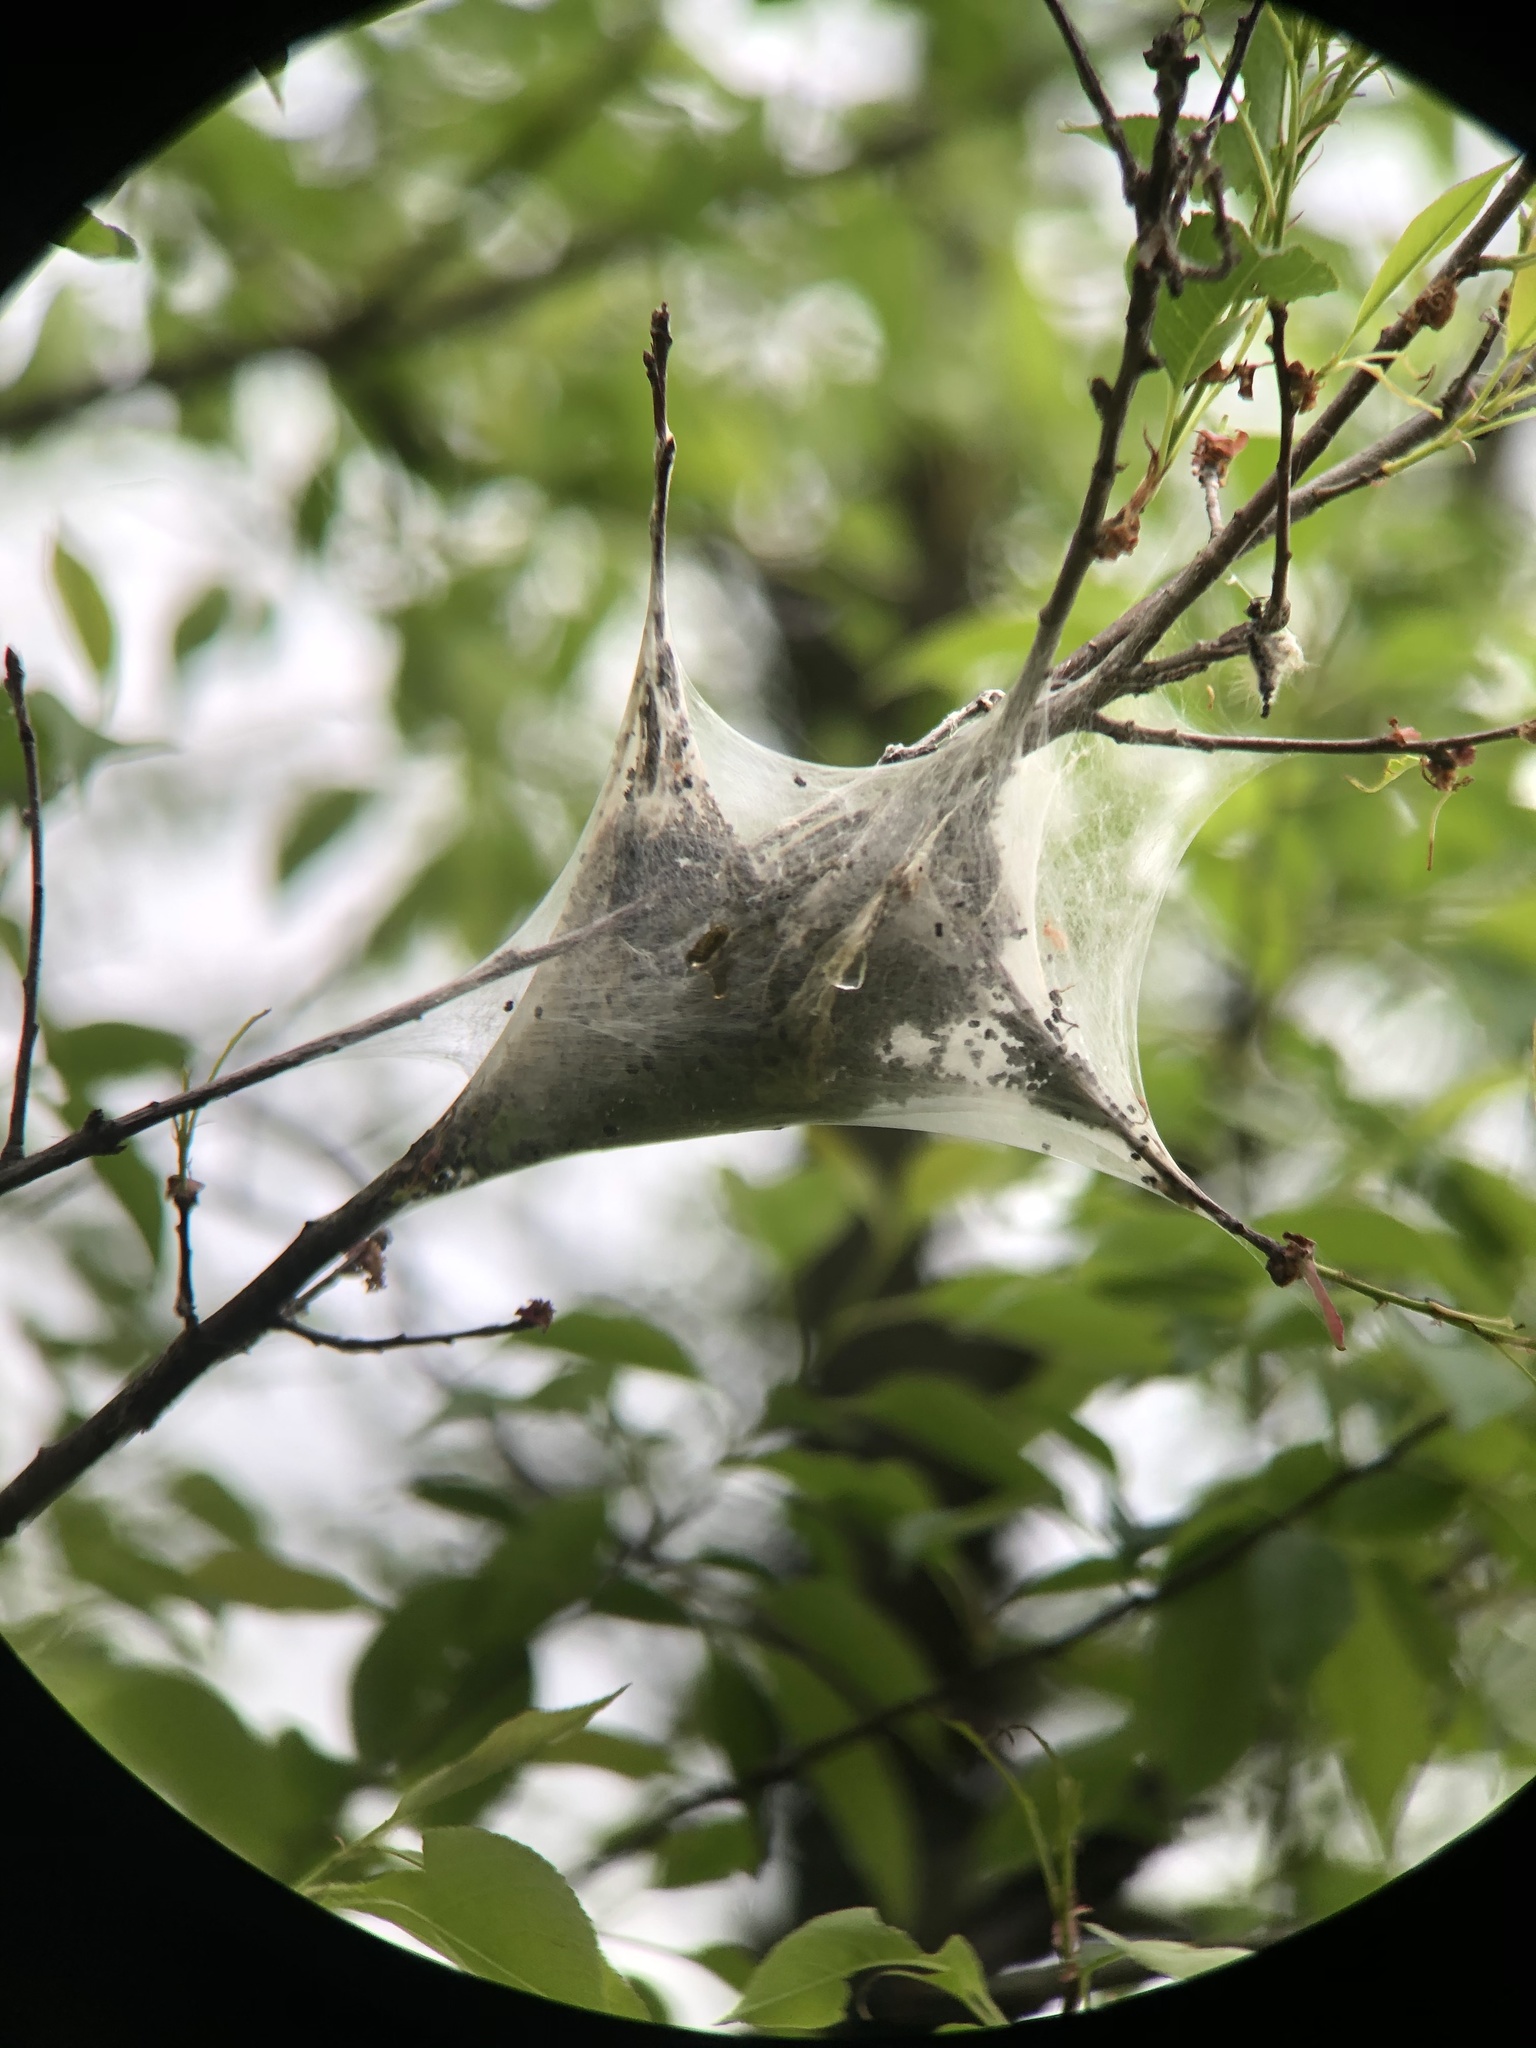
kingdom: Animalia
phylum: Arthropoda
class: Insecta
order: Lepidoptera
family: Lasiocampidae
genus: Malacosoma
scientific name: Malacosoma americana
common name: Eastern tent caterpillar moth
